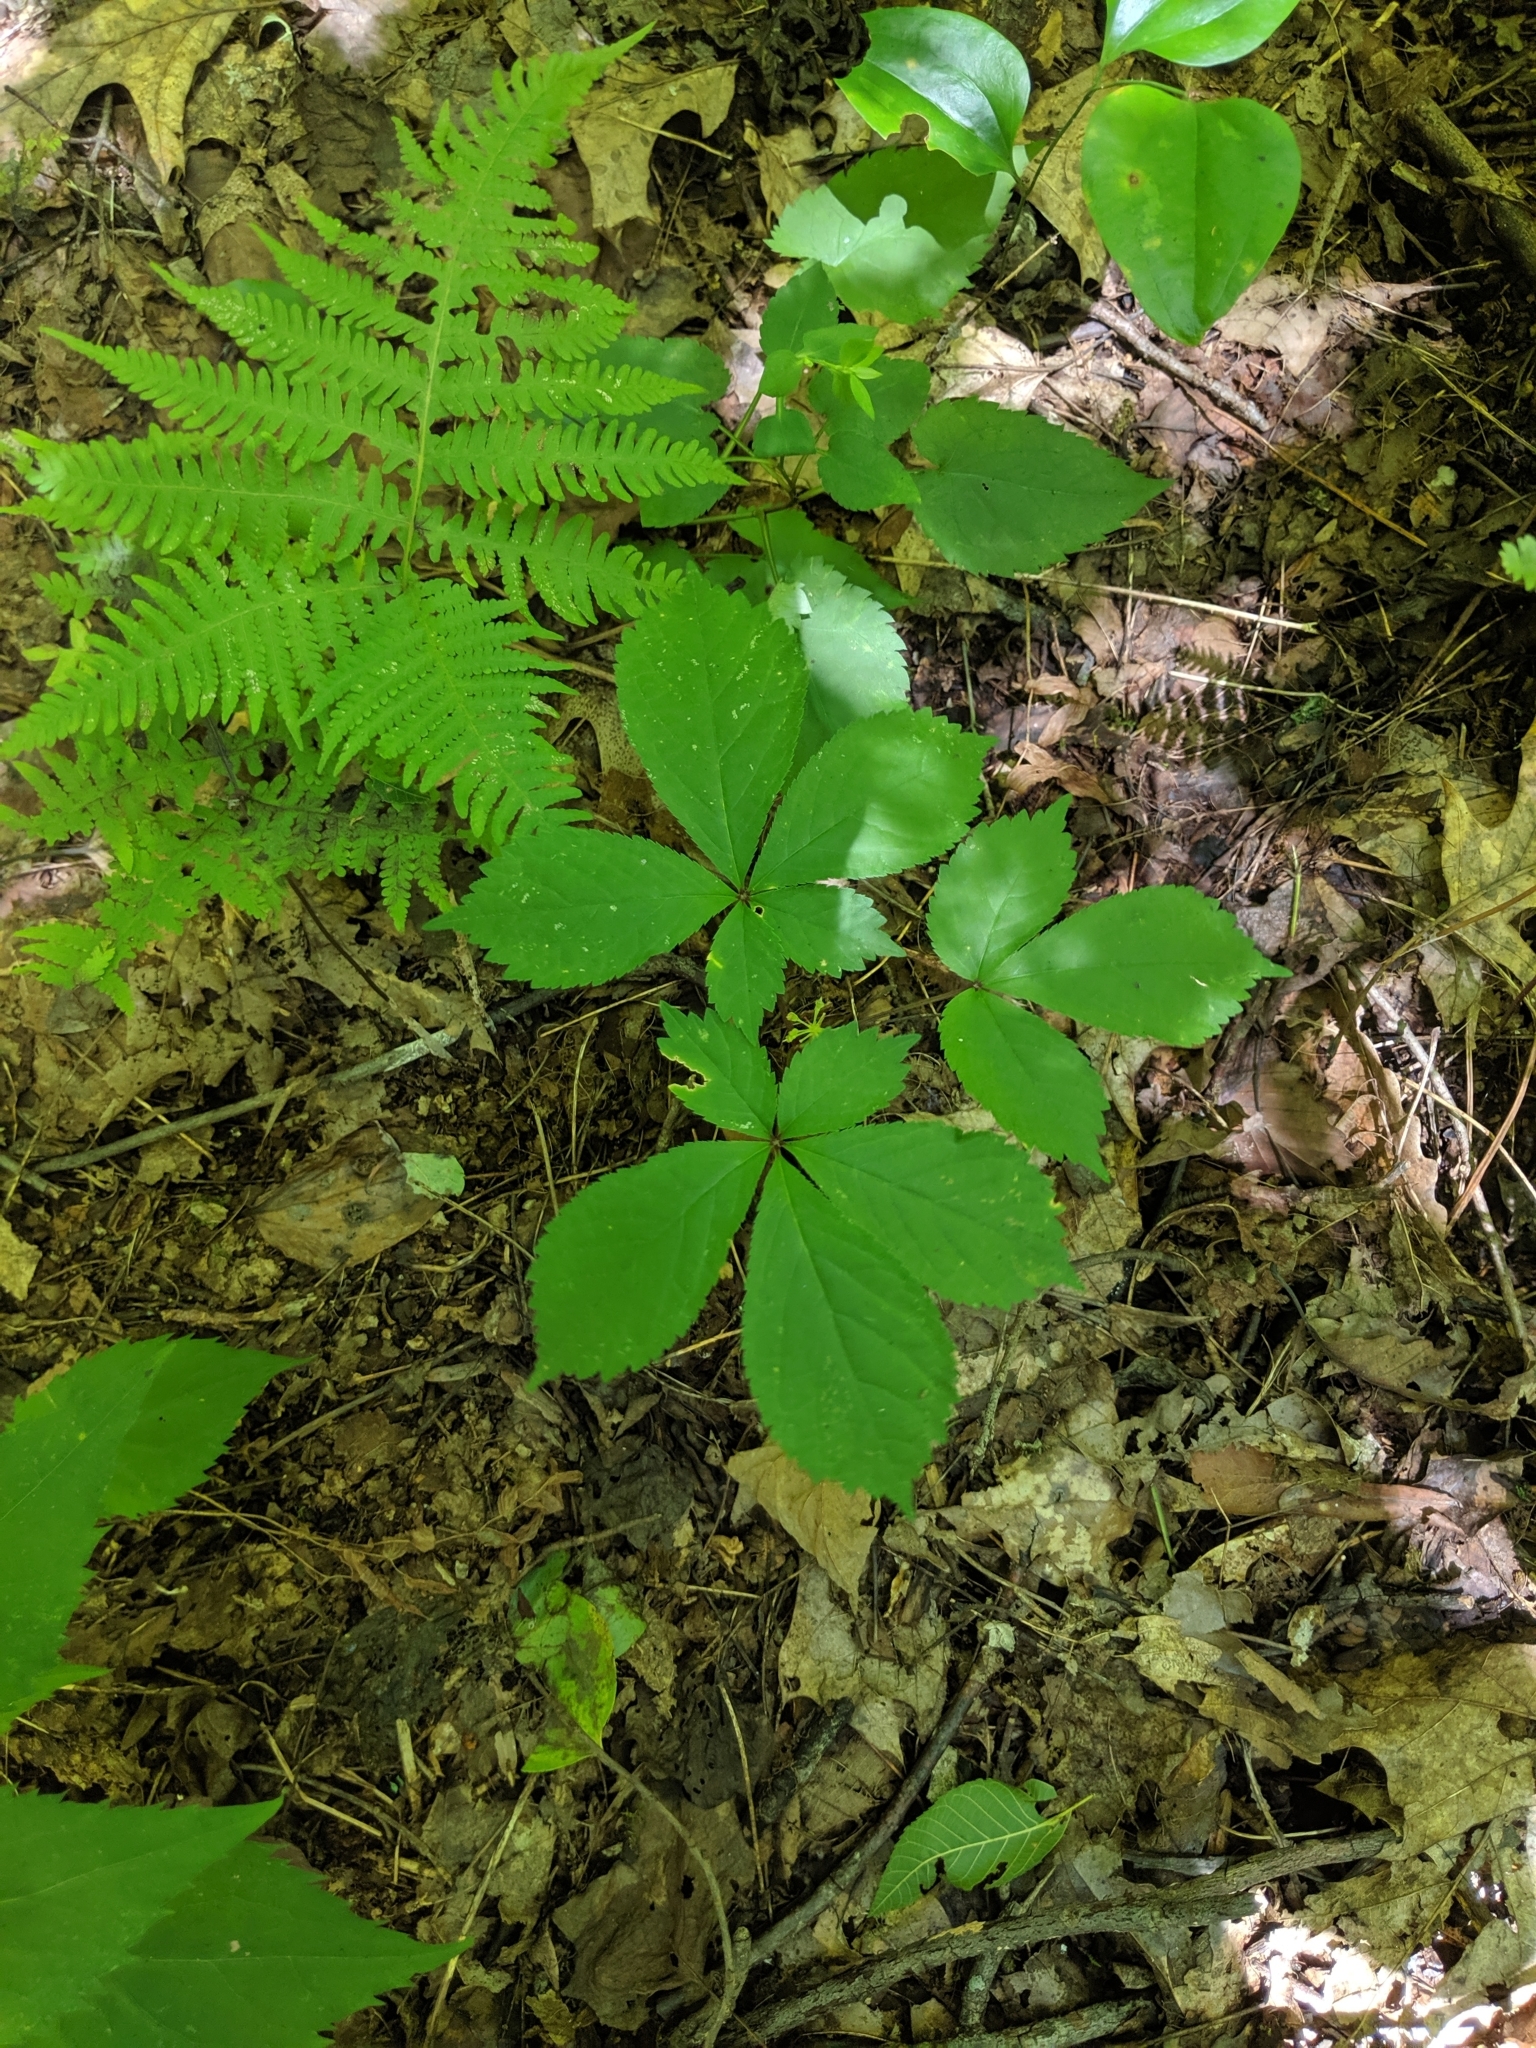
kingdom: Plantae
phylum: Tracheophyta
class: Magnoliopsida
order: Apiales
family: Araliaceae
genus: Panax
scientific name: Panax quinquefolius
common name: American ginseng
